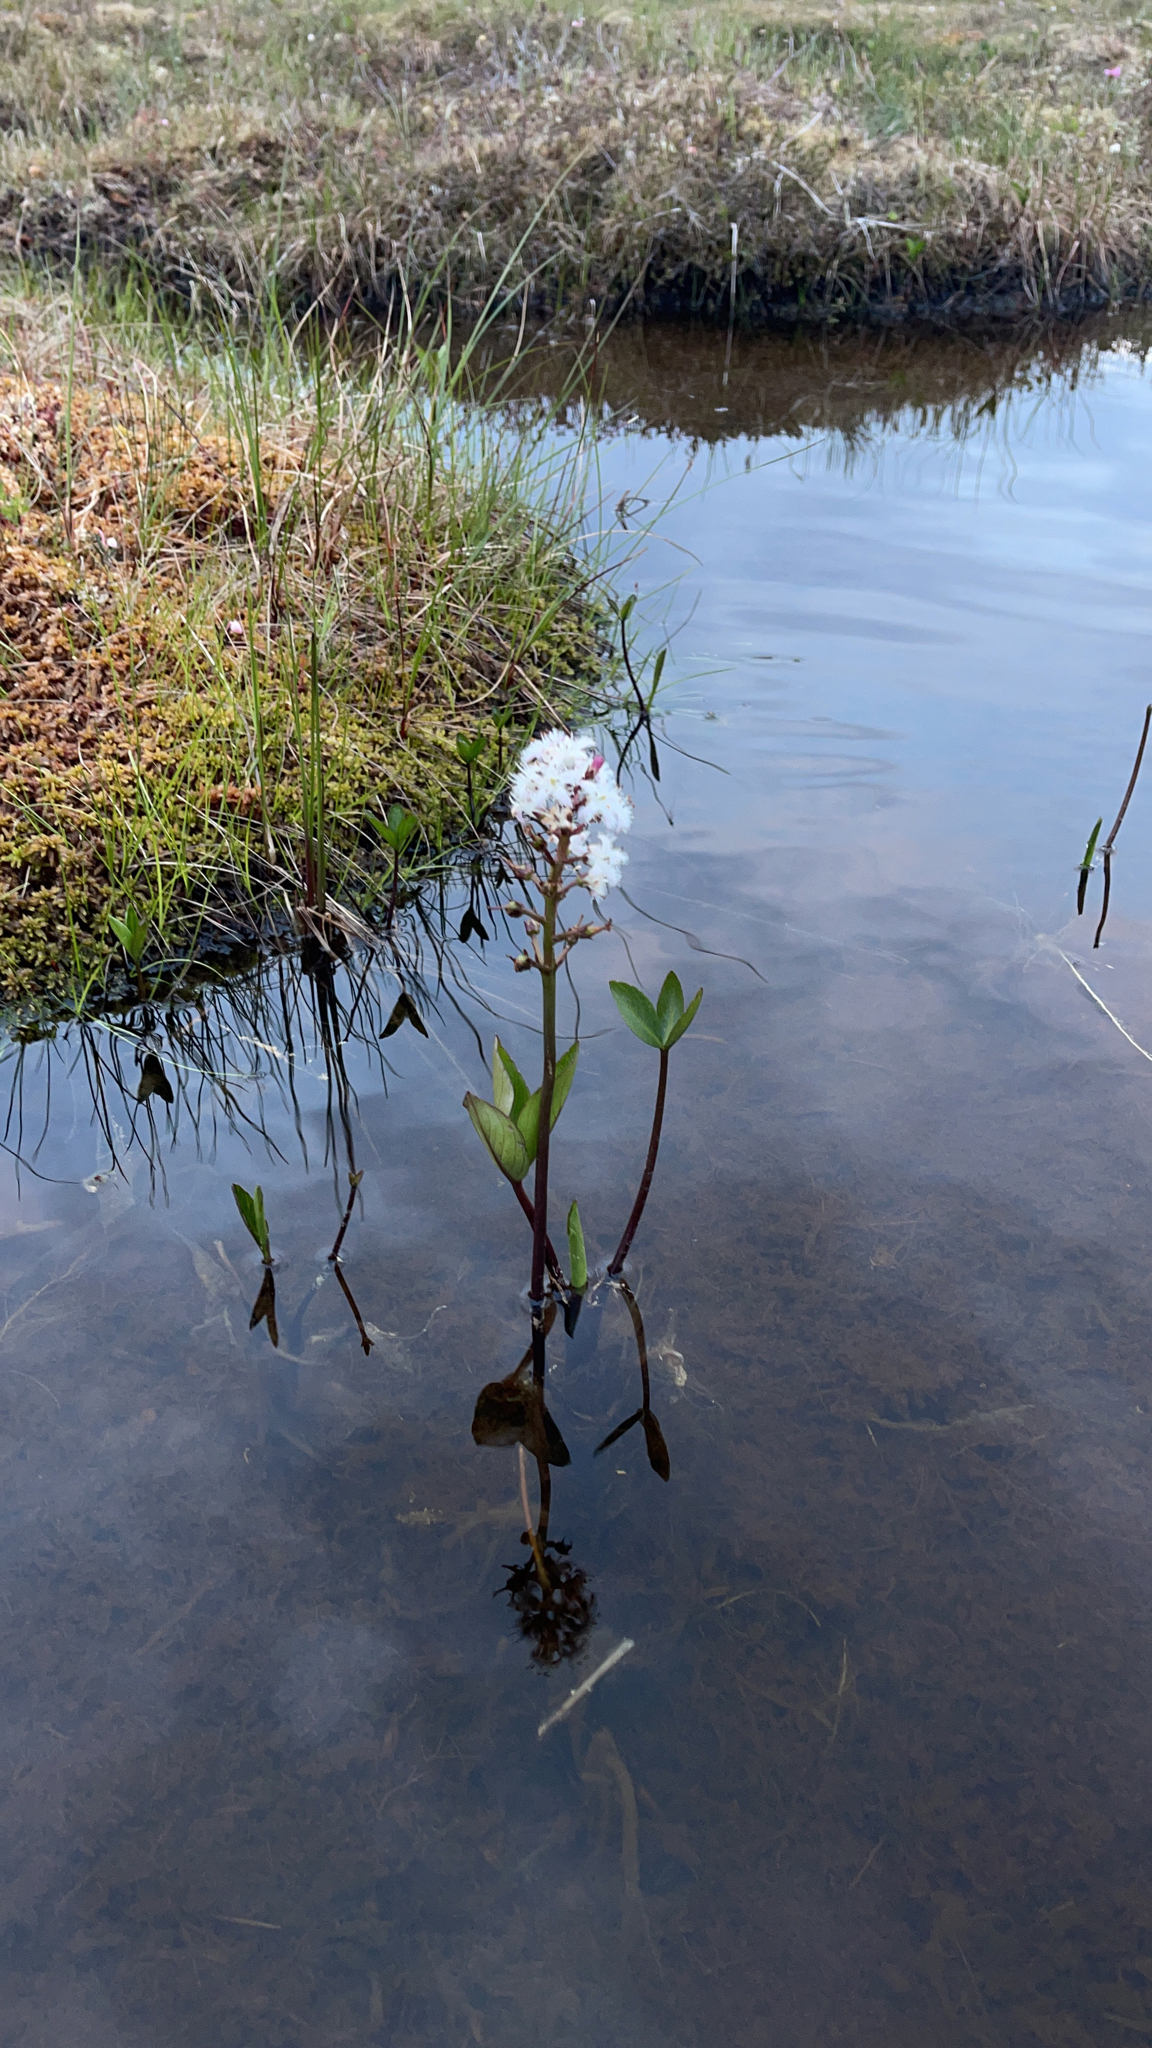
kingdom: Plantae
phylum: Tracheophyta
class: Magnoliopsida
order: Asterales
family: Menyanthaceae
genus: Menyanthes
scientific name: Menyanthes trifoliata
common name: Bogbean
